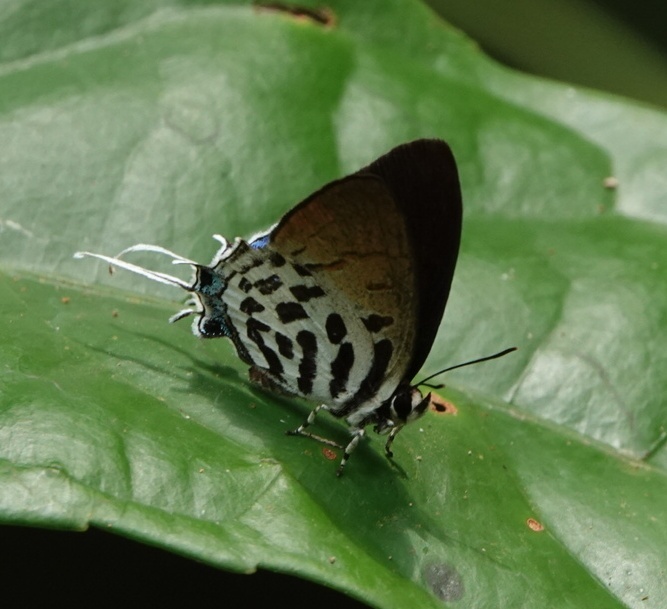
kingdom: Animalia
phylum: Arthropoda
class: Insecta
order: Lepidoptera
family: Lycaenidae
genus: Drupadia
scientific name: Drupadia ravindra
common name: Common posy
